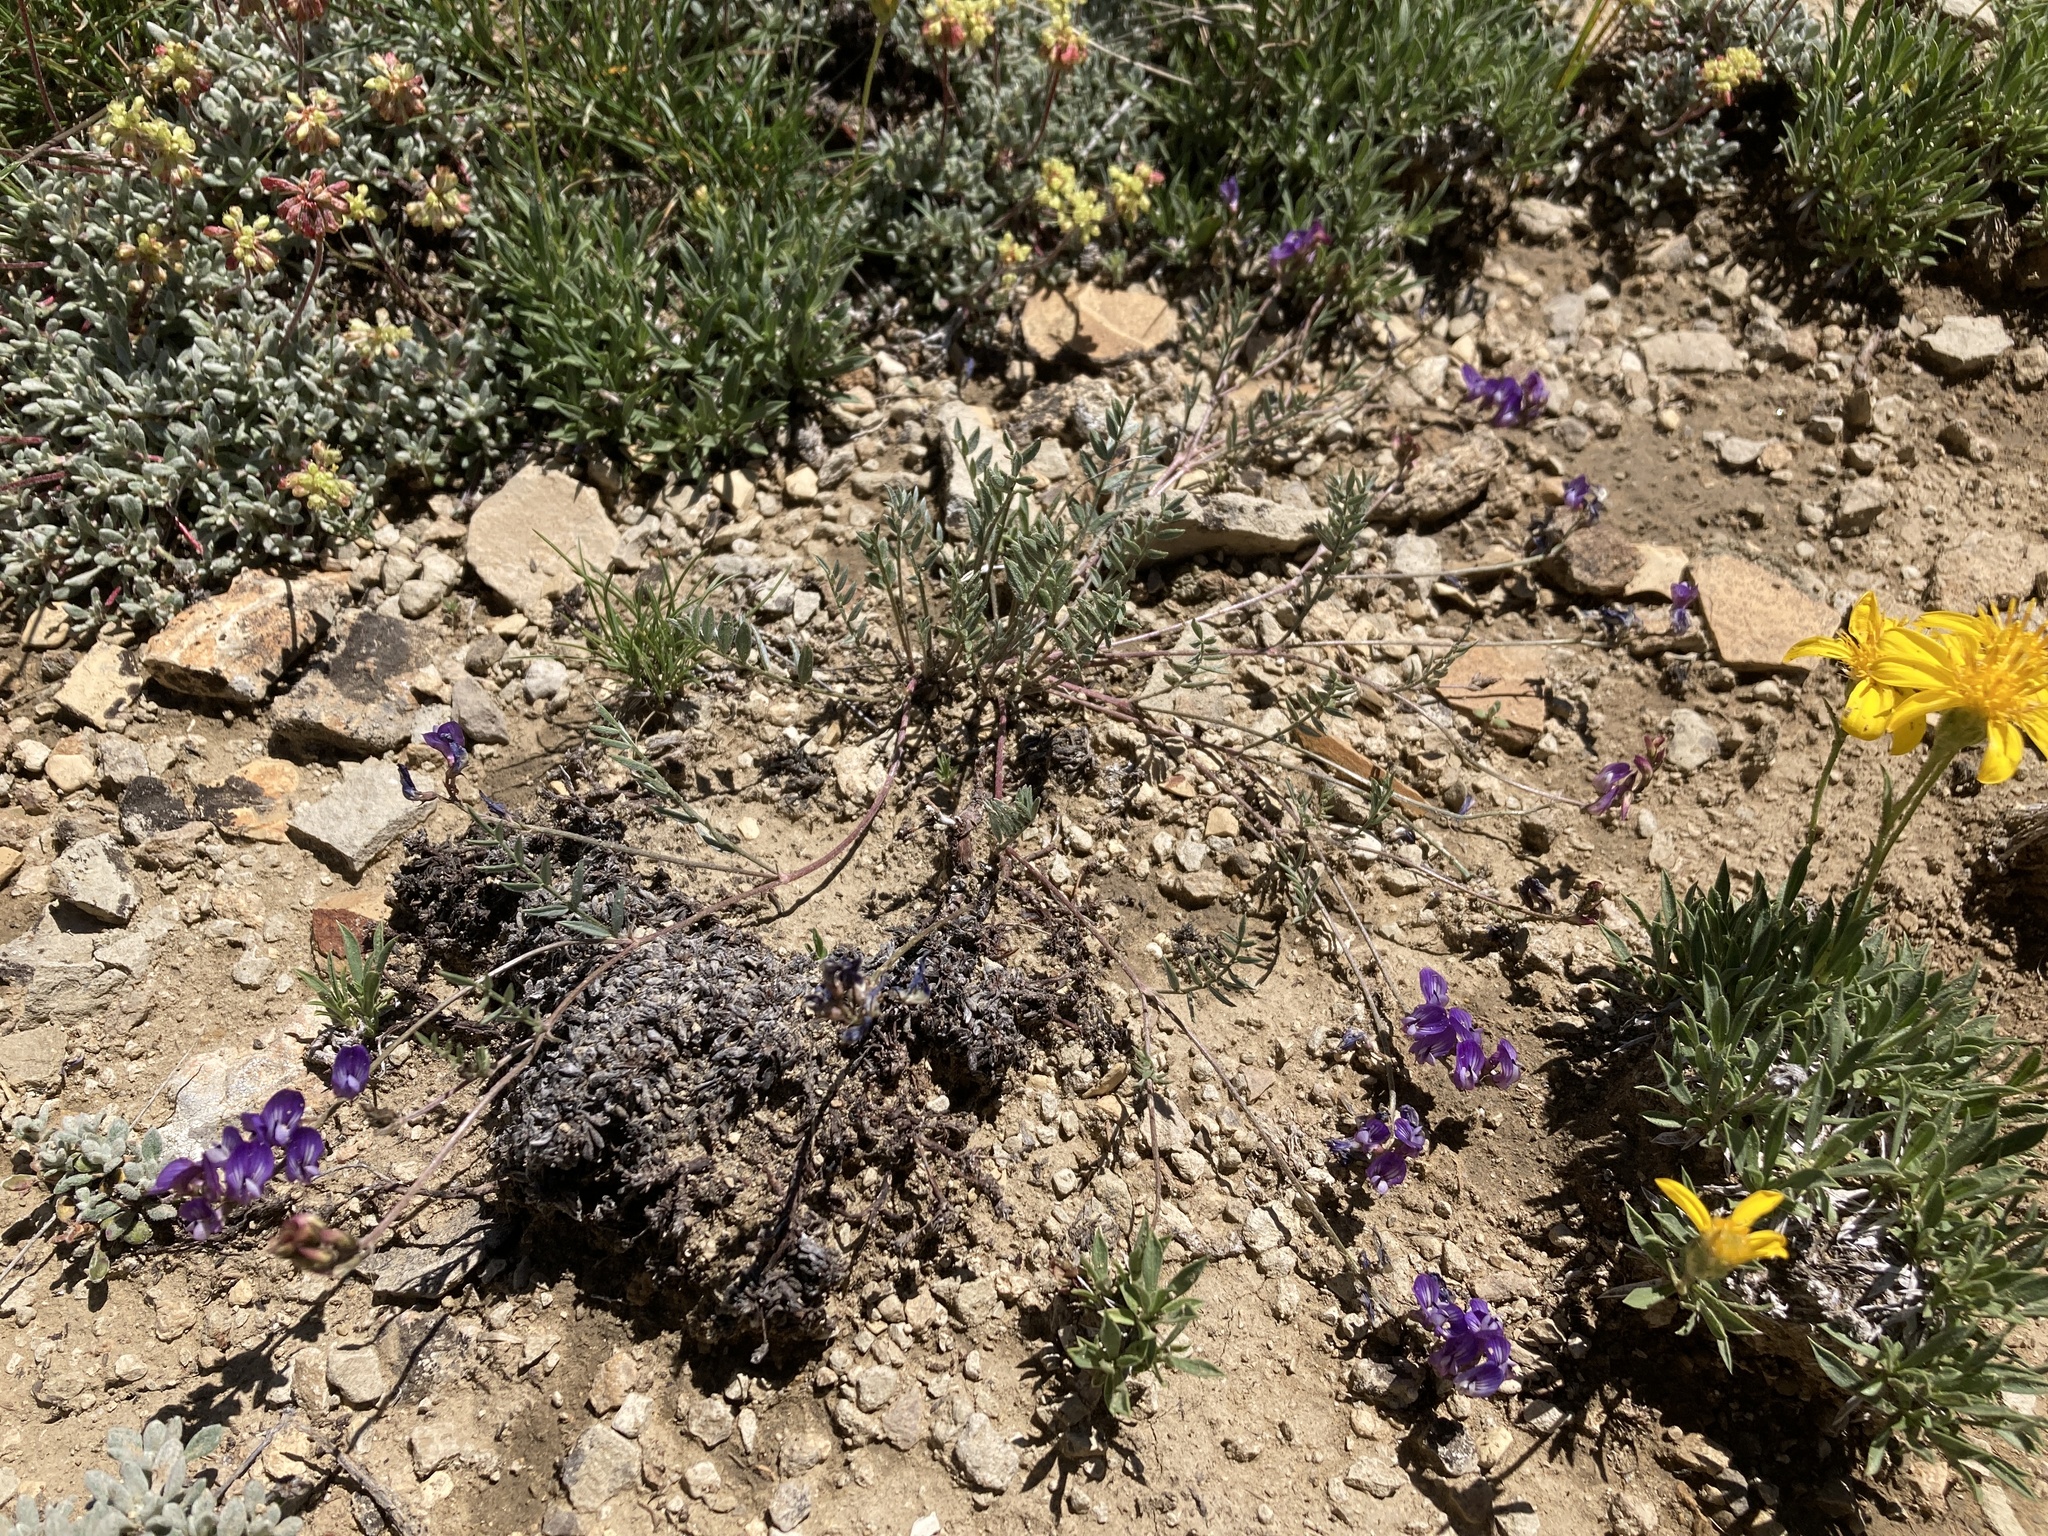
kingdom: Plantae
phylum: Tracheophyta
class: Magnoliopsida
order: Fabales
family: Fabaceae
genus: Astragalus
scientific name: Astragalus miser
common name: Timber milkvetch
